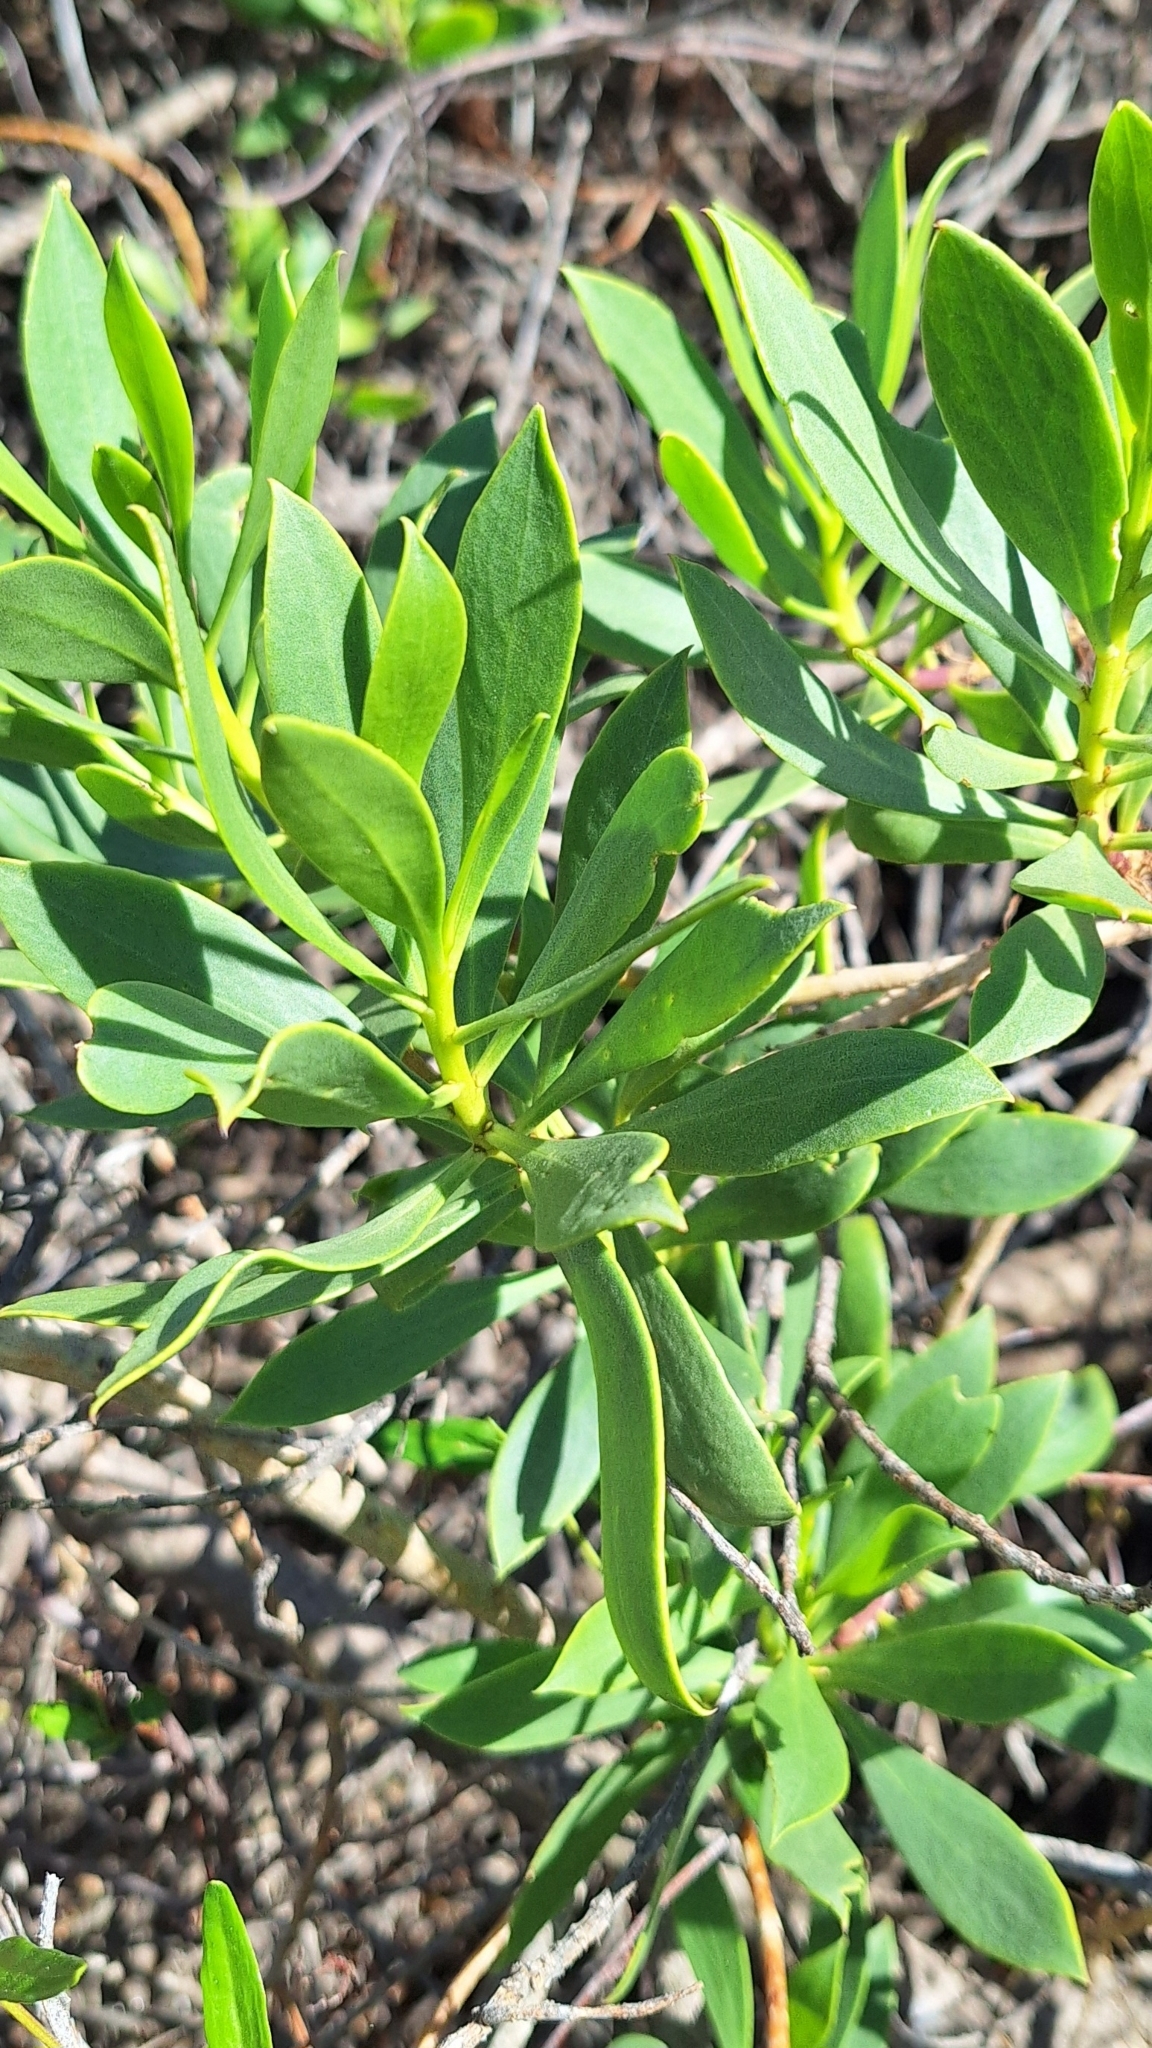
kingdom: Plantae
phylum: Tracheophyta
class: Magnoliopsida
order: Lamiales
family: Scrophulariaceae
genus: Myoporum
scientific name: Myoporum insulare
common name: Common boobialla
